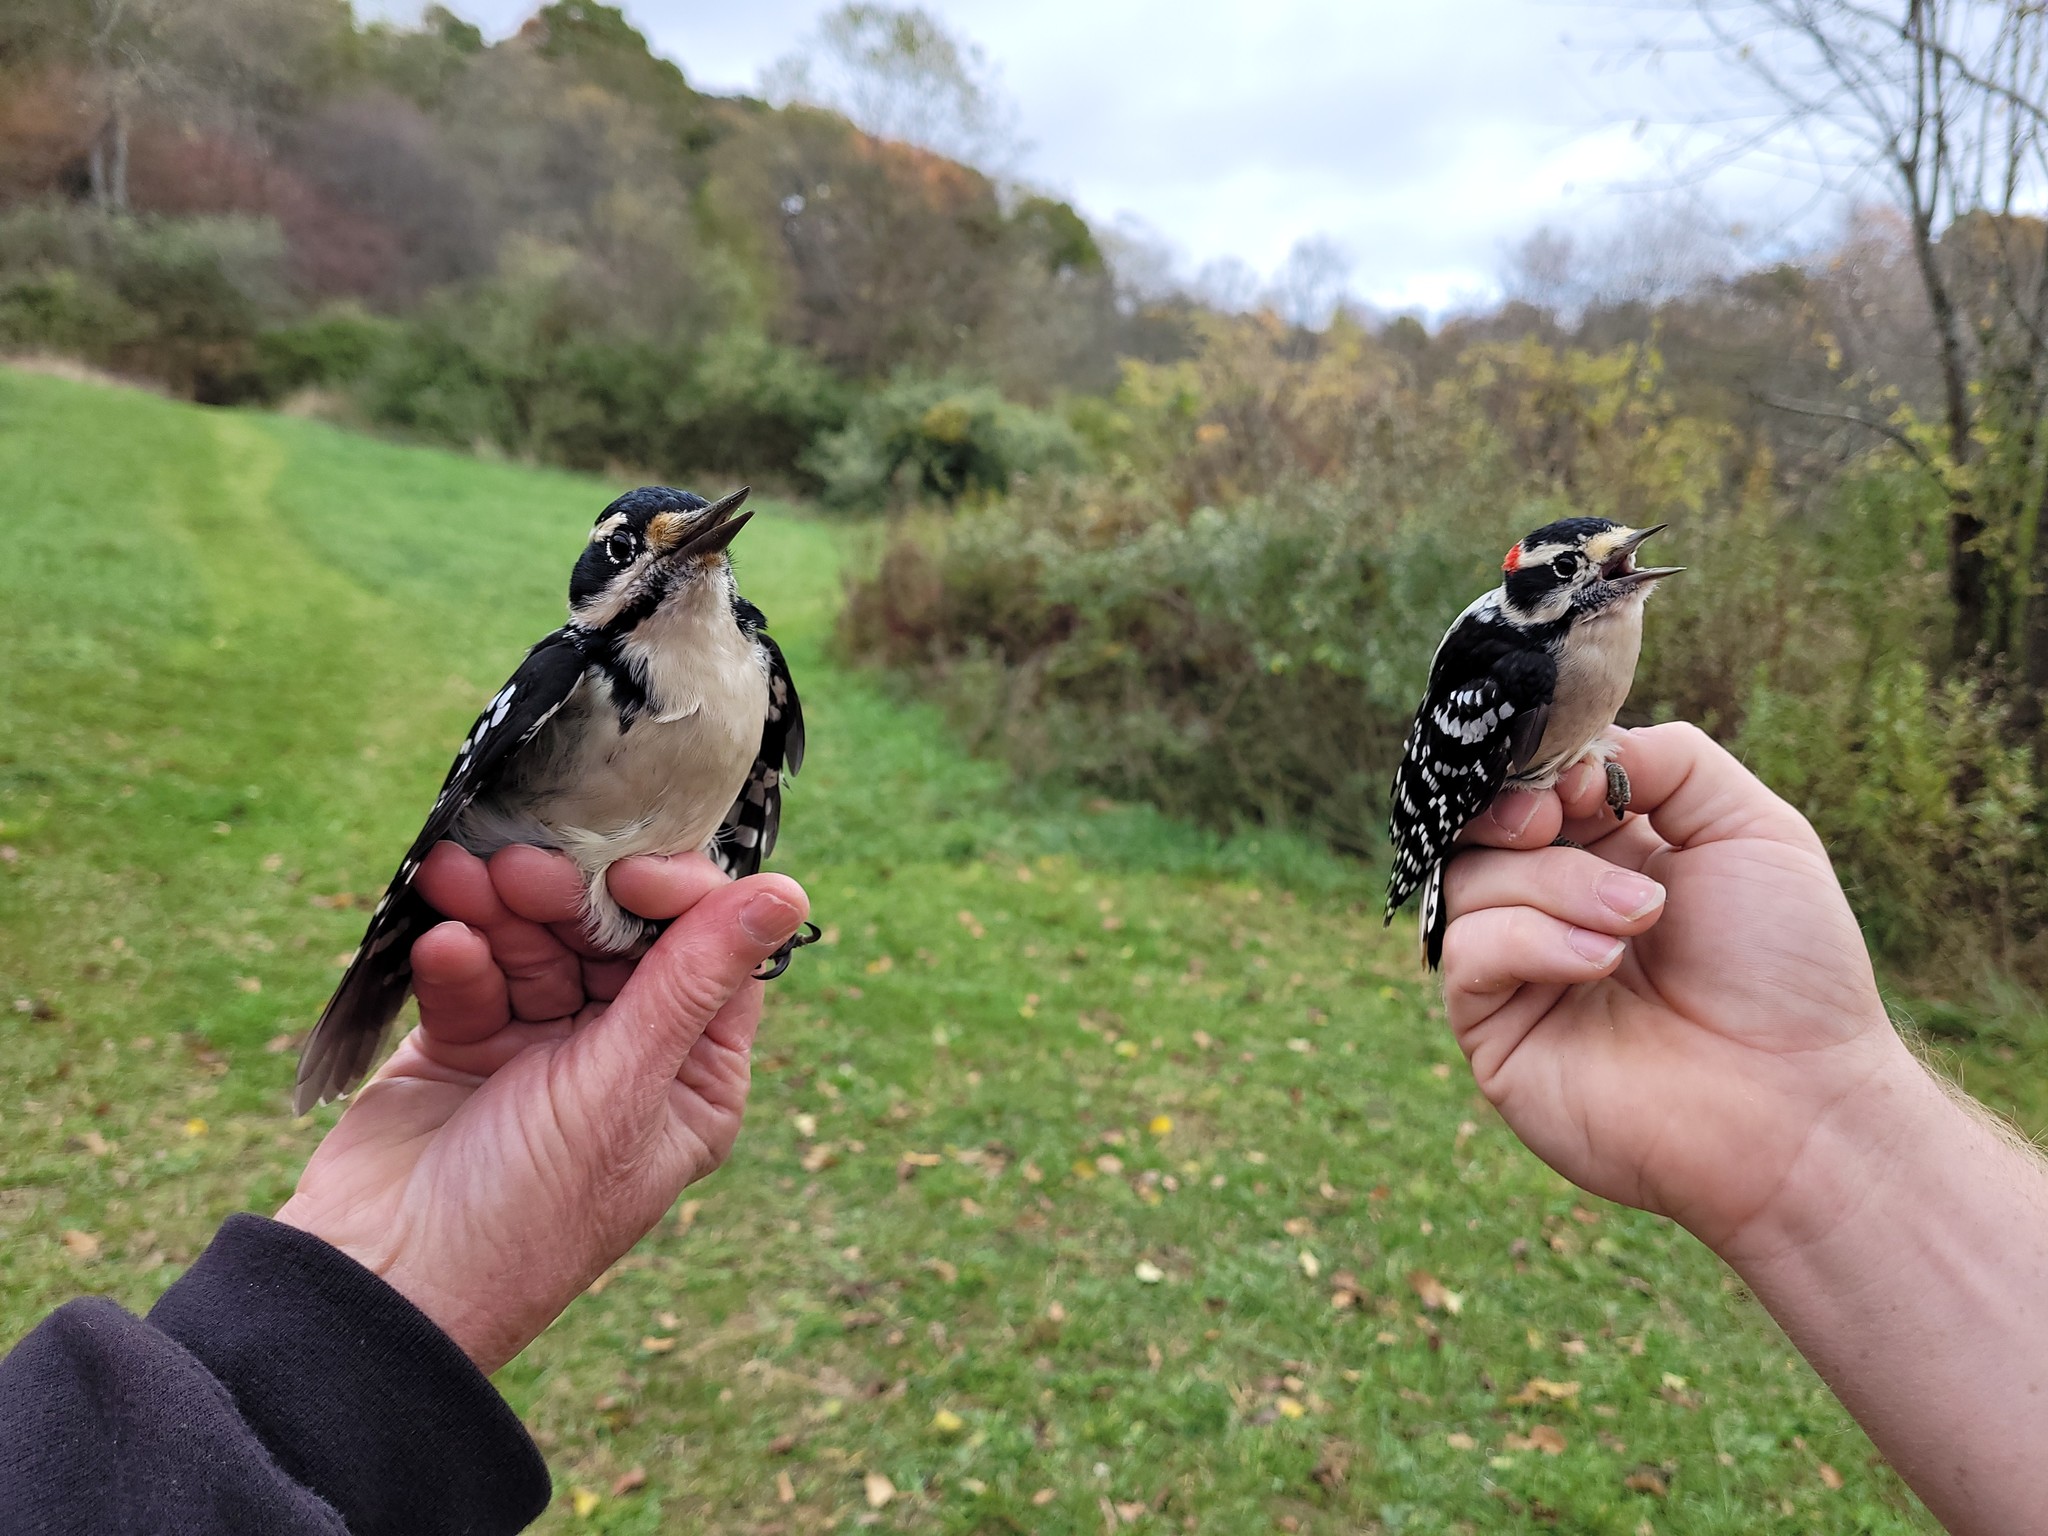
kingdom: Animalia
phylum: Chordata
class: Aves
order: Piciformes
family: Picidae
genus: Leuconotopicus
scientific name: Leuconotopicus villosus
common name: Hairy woodpecker
